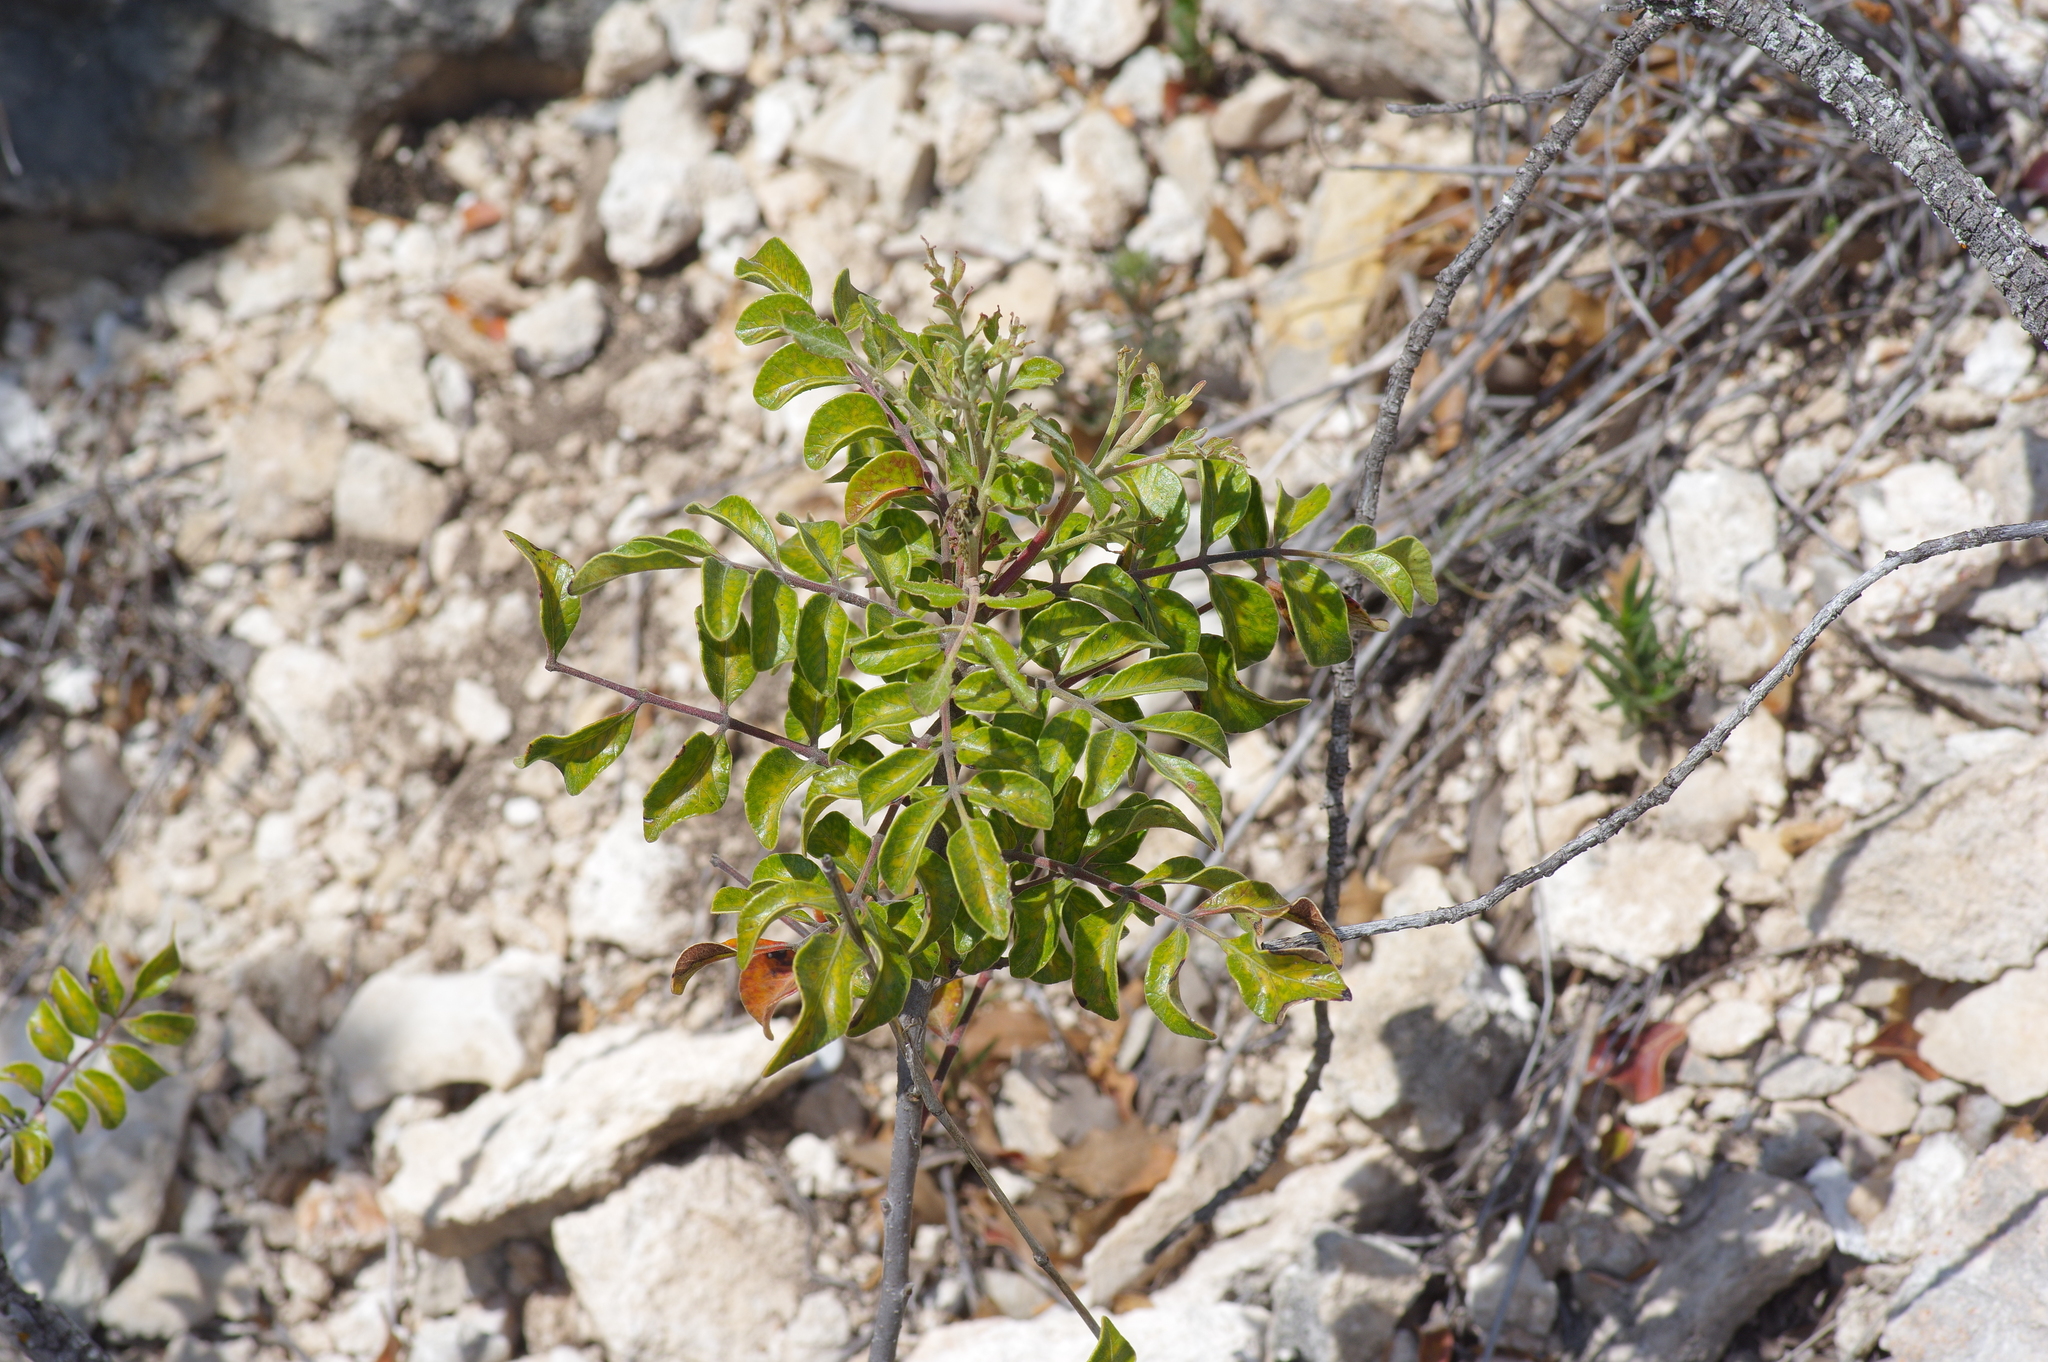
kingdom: Plantae
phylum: Tracheophyta
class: Magnoliopsida
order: Sapindales
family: Anacardiaceae
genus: Rhus
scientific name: Rhus virens
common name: Evergreen sumac
